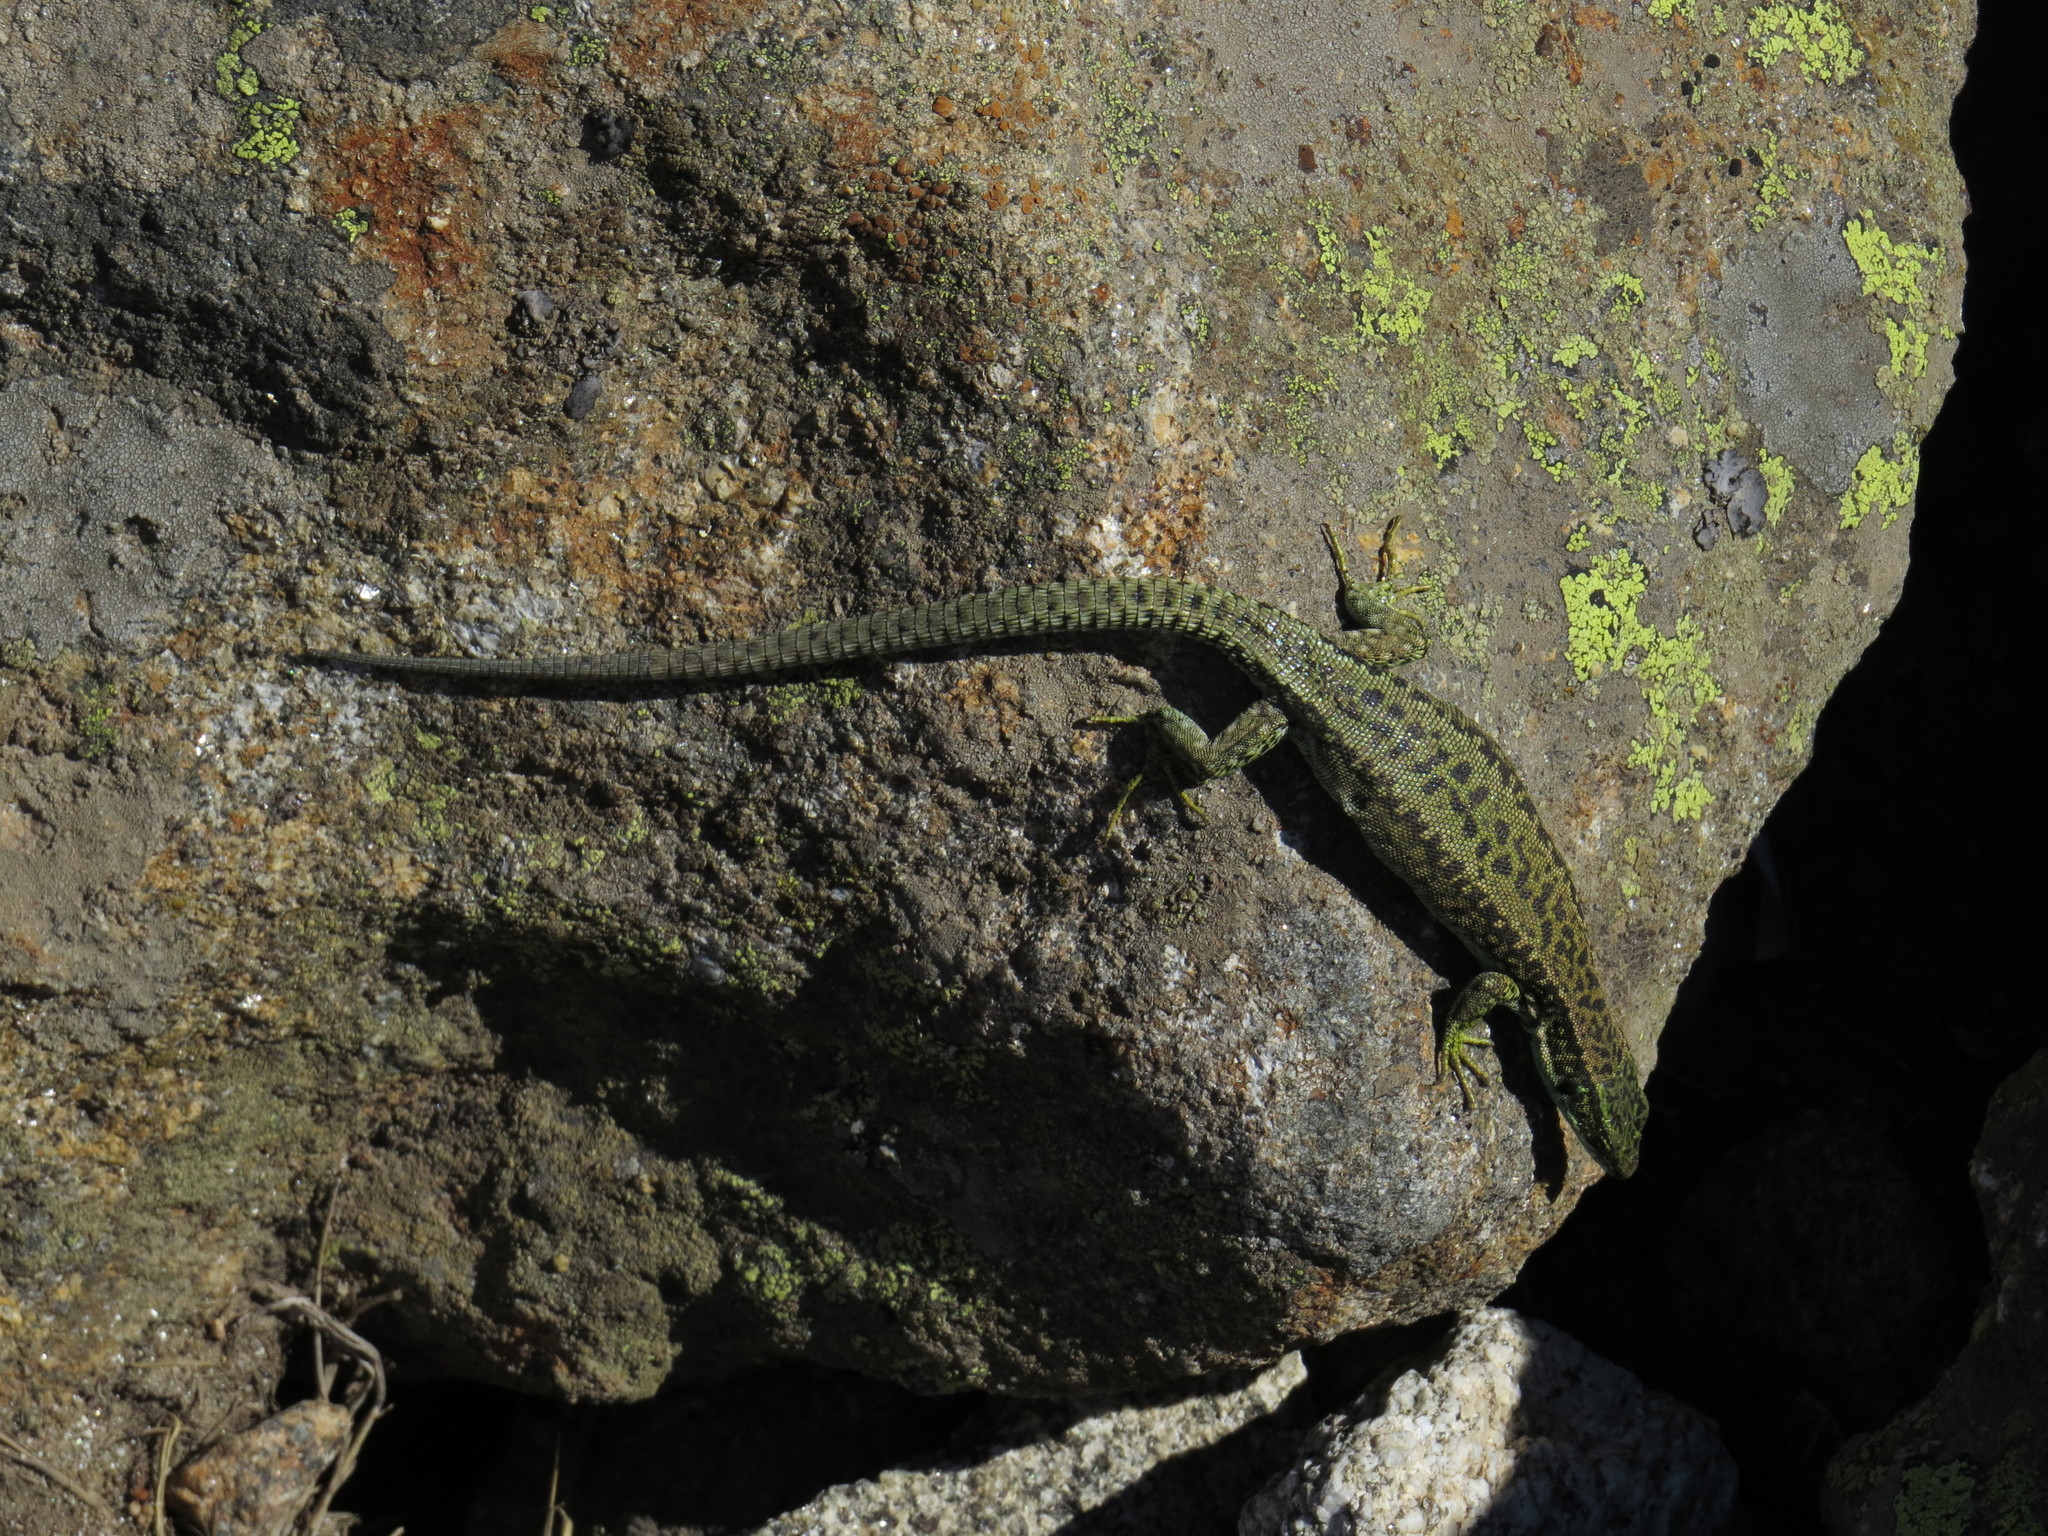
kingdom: Animalia
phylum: Chordata
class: Squamata
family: Lacertidae
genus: Iberolacerta
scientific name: Iberolacerta cyreni
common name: Cyren’s rock lizard
